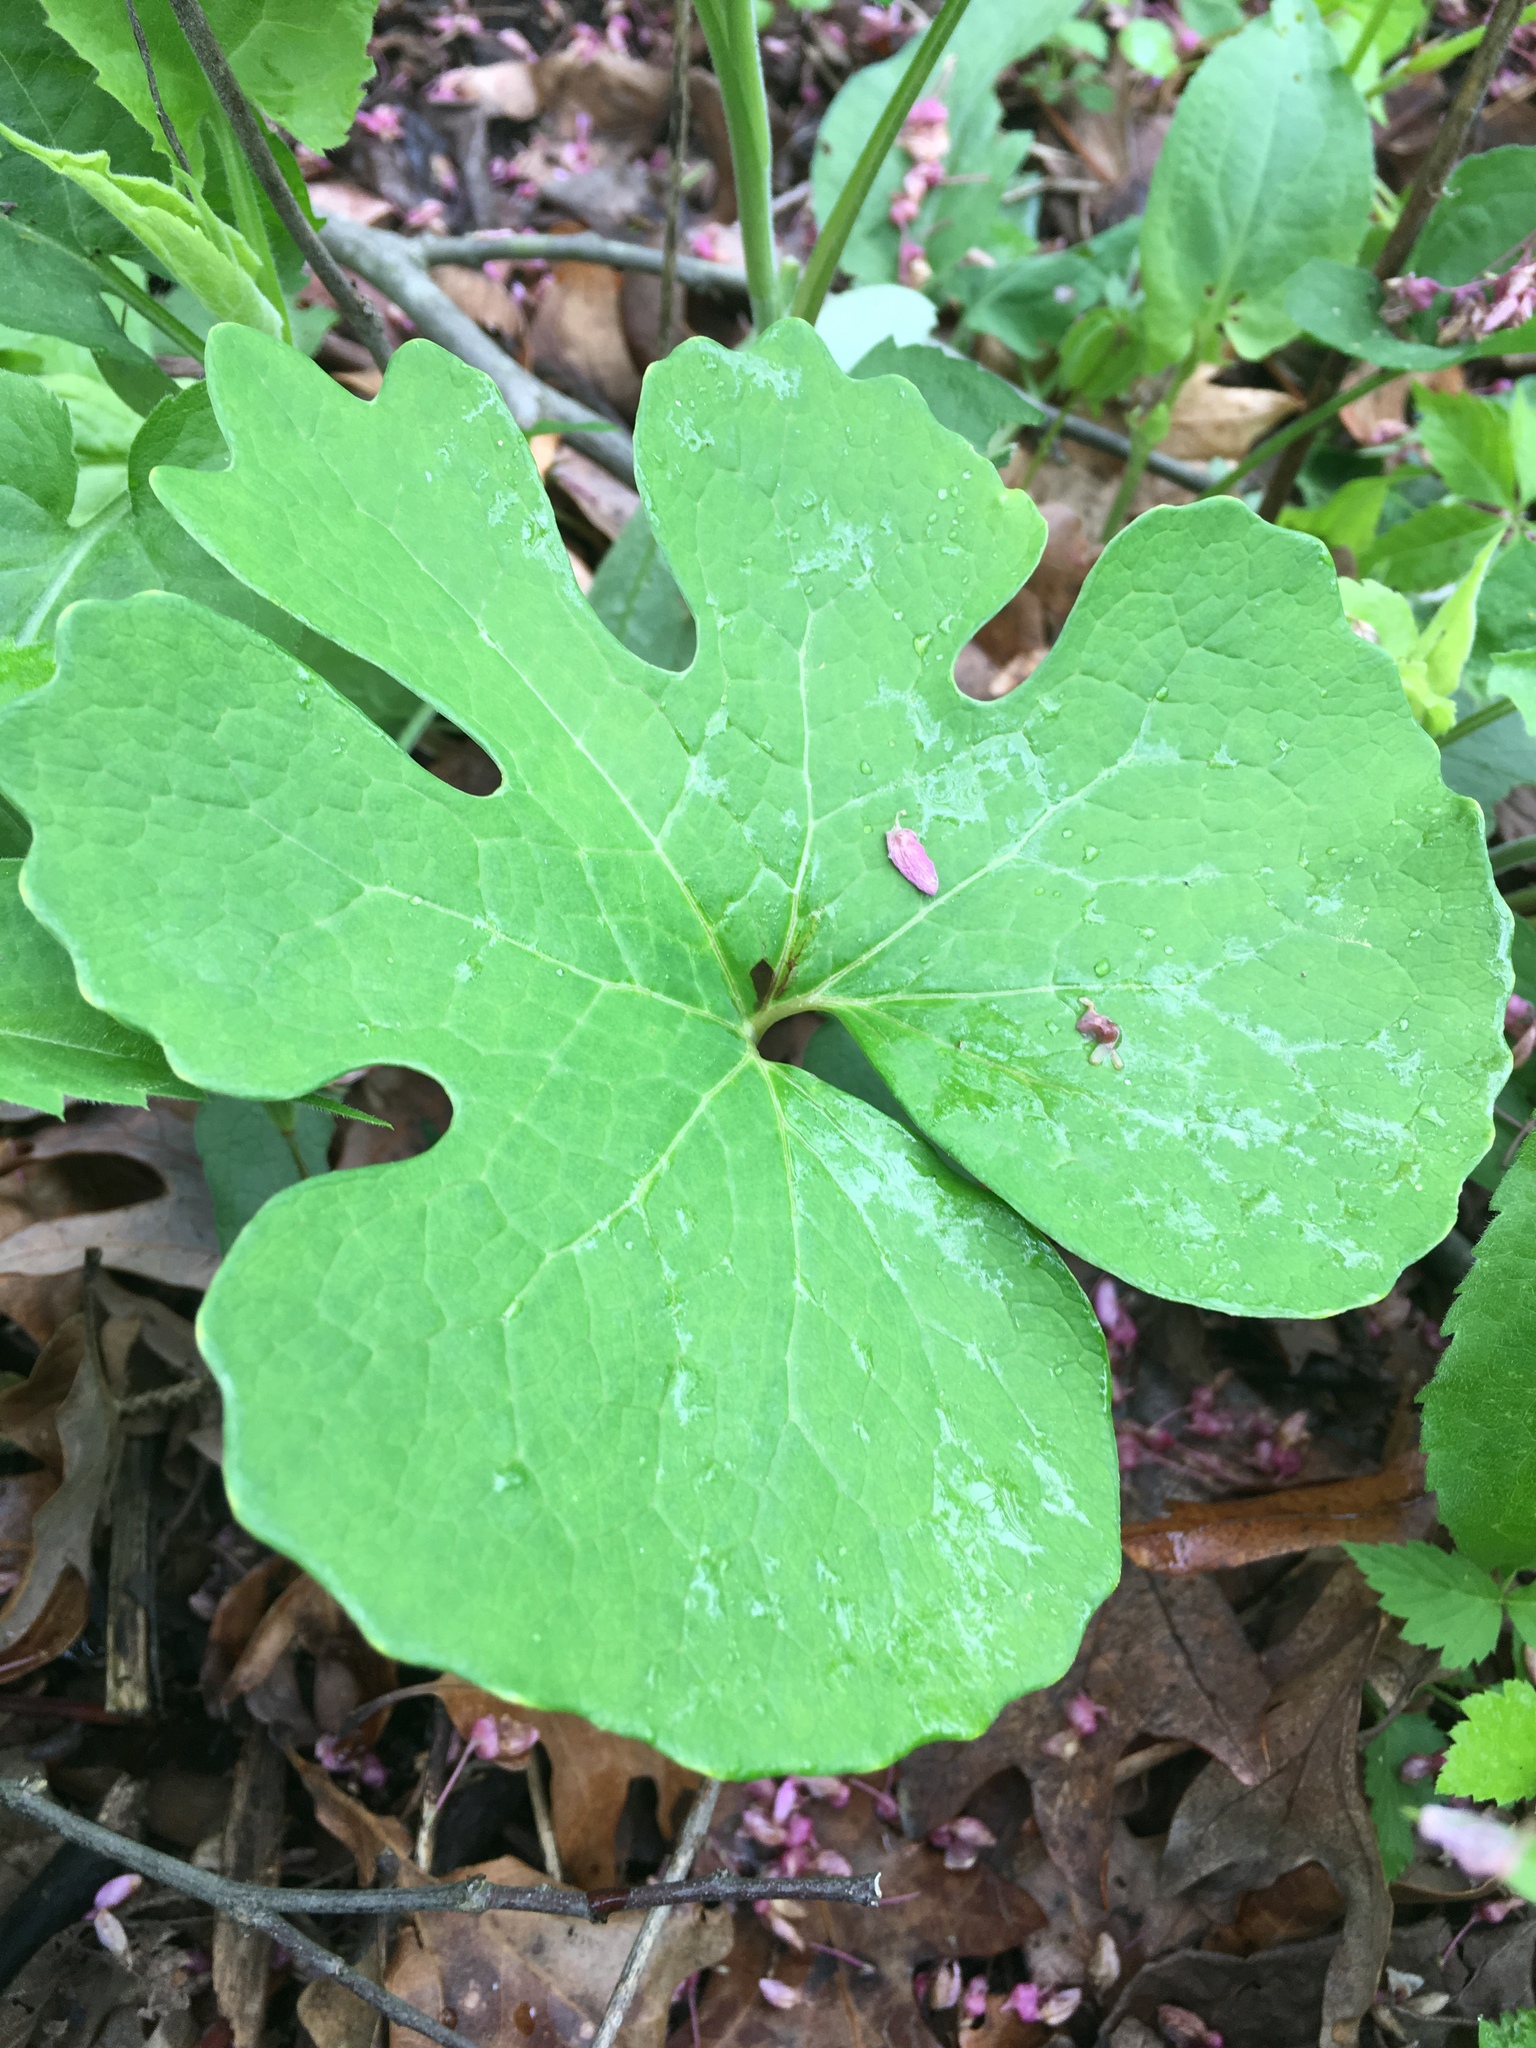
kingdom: Plantae
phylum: Tracheophyta
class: Magnoliopsida
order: Ranunculales
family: Papaveraceae
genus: Sanguinaria
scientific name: Sanguinaria canadensis
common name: Bloodroot
